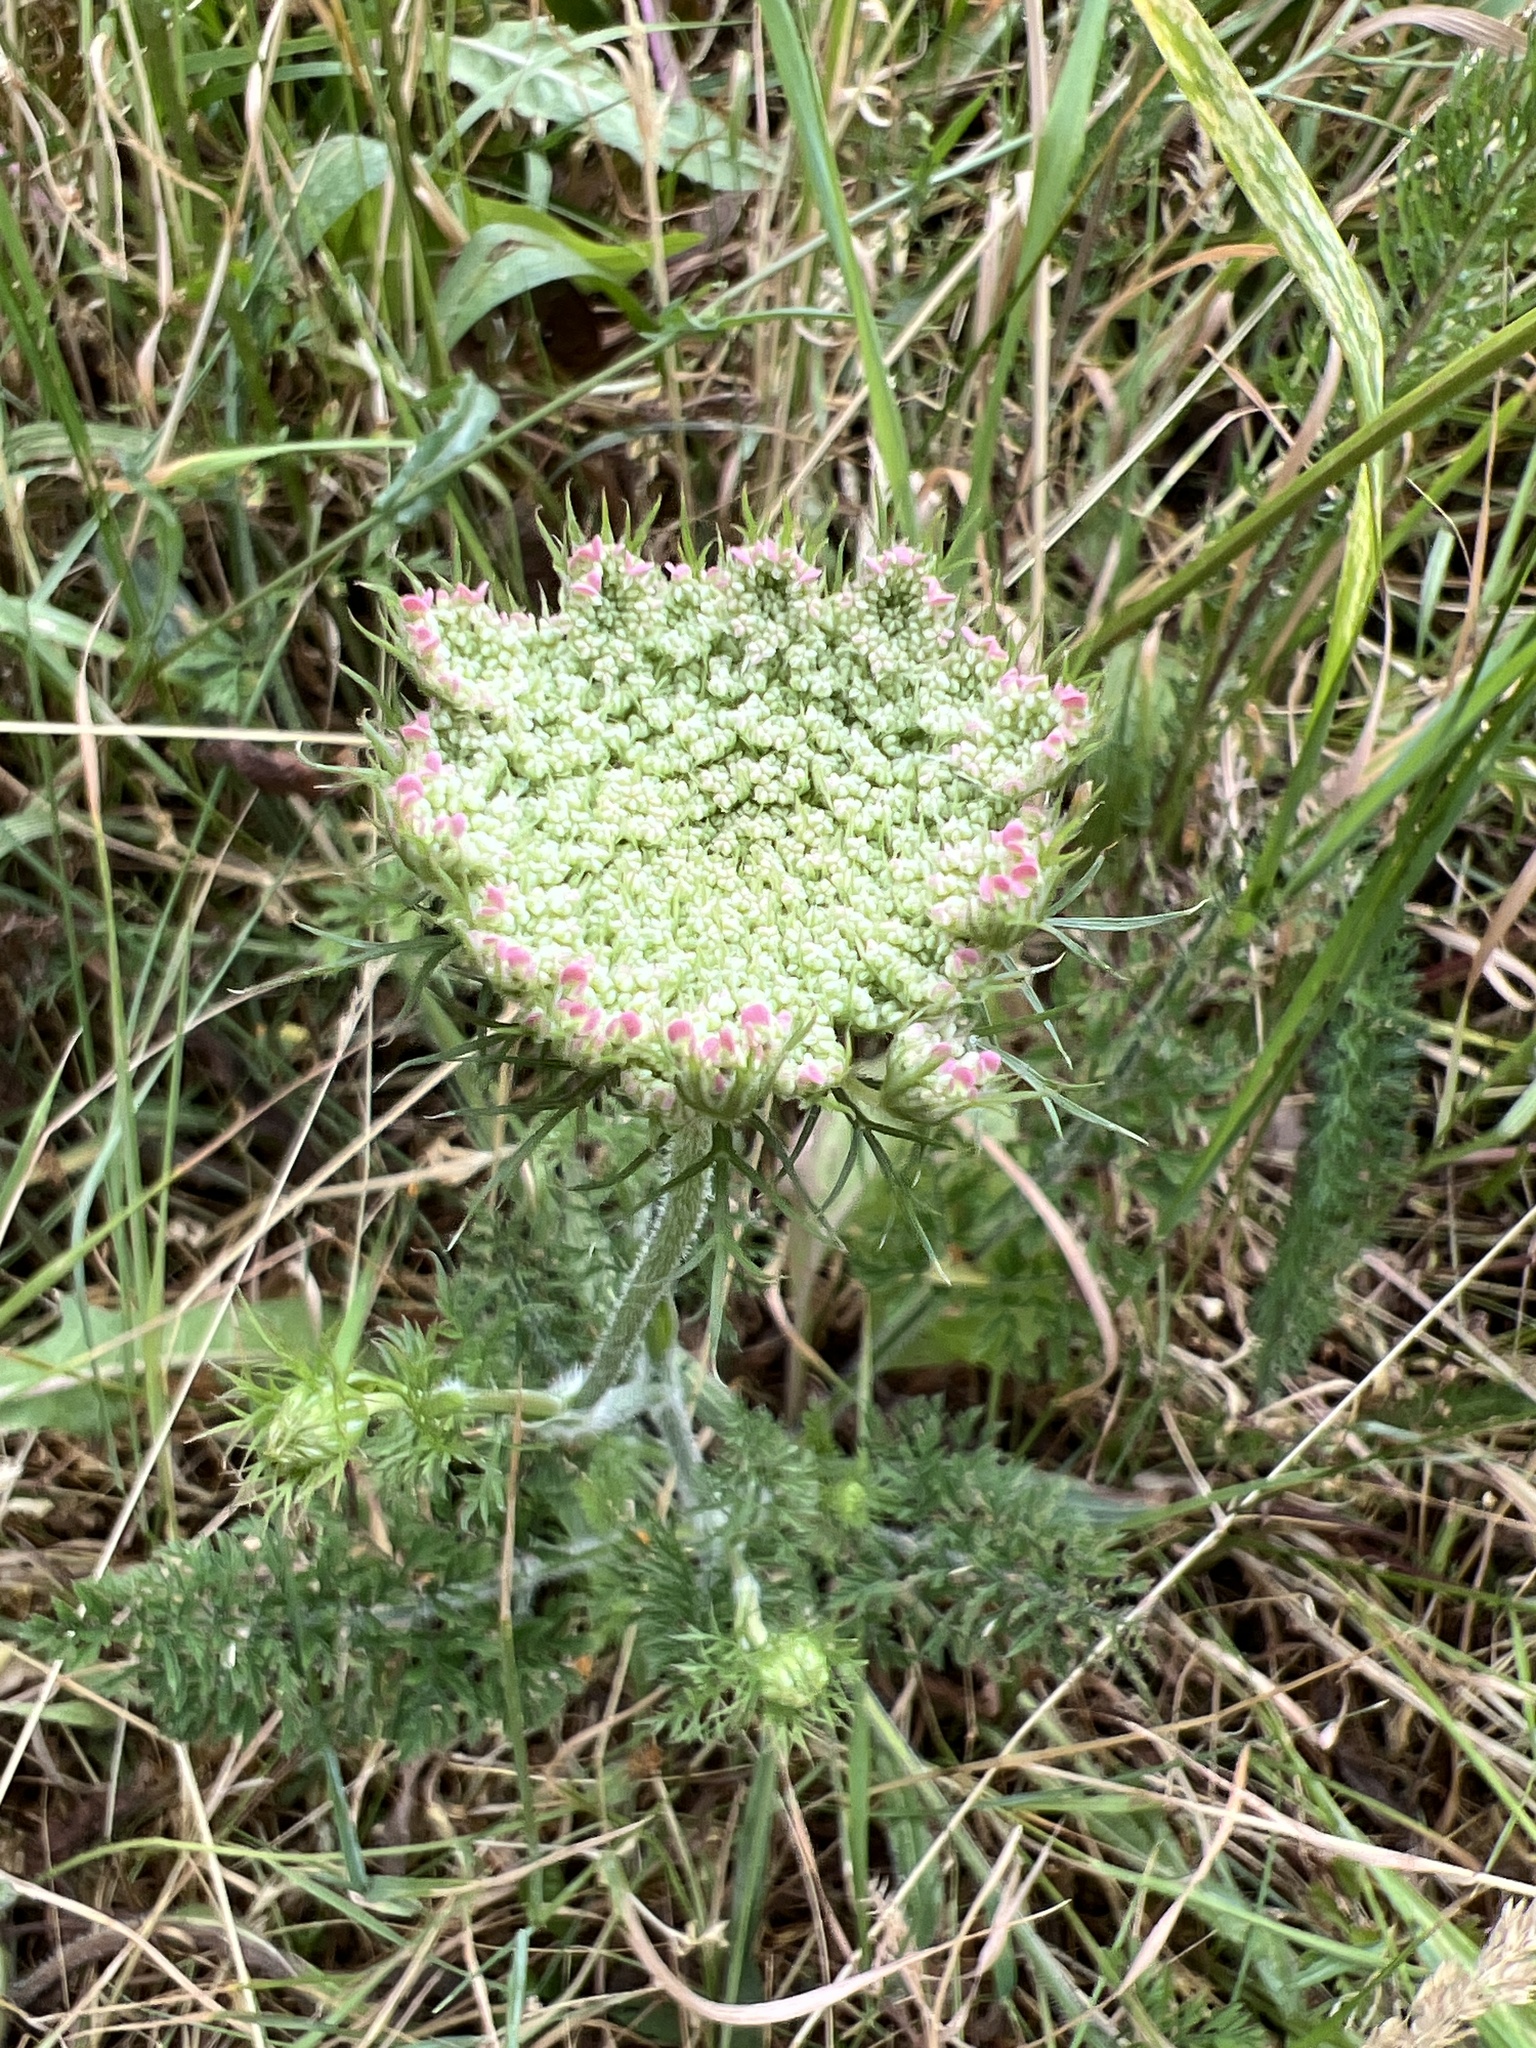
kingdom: Plantae
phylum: Tracheophyta
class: Magnoliopsida
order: Apiales
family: Apiaceae
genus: Daucus
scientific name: Daucus carota
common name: Wild carrot
